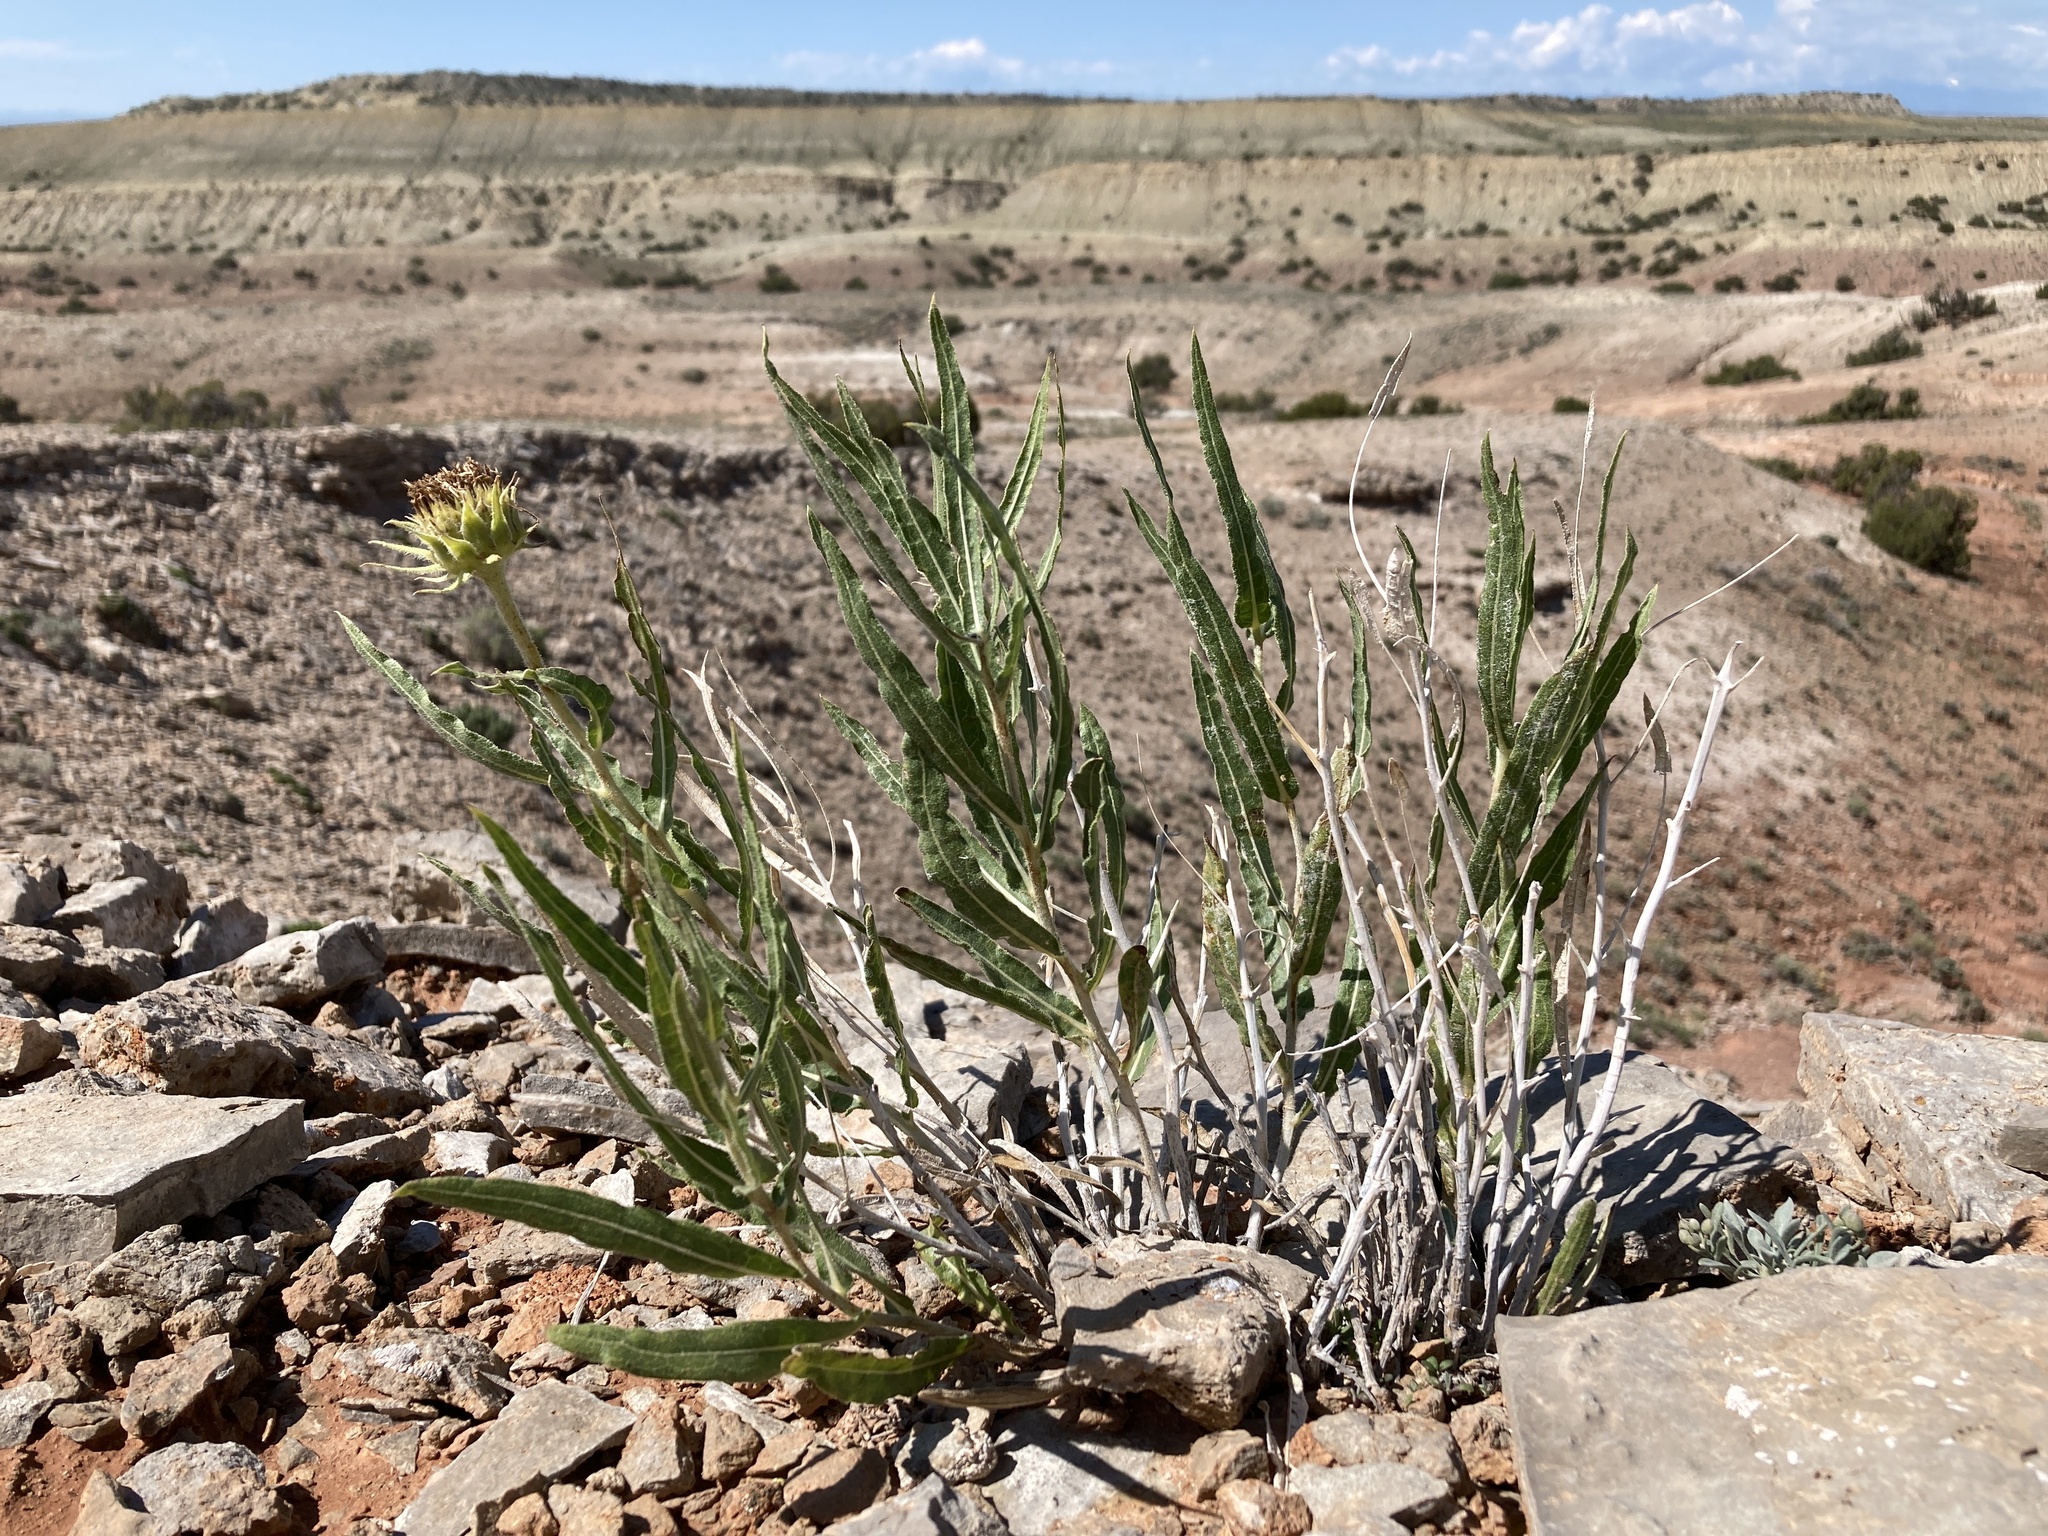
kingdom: Plantae
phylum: Tracheophyta
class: Magnoliopsida
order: Asterales
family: Asteraceae
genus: Scabrethia
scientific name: Scabrethia scabra
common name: Rough mules's-ears
